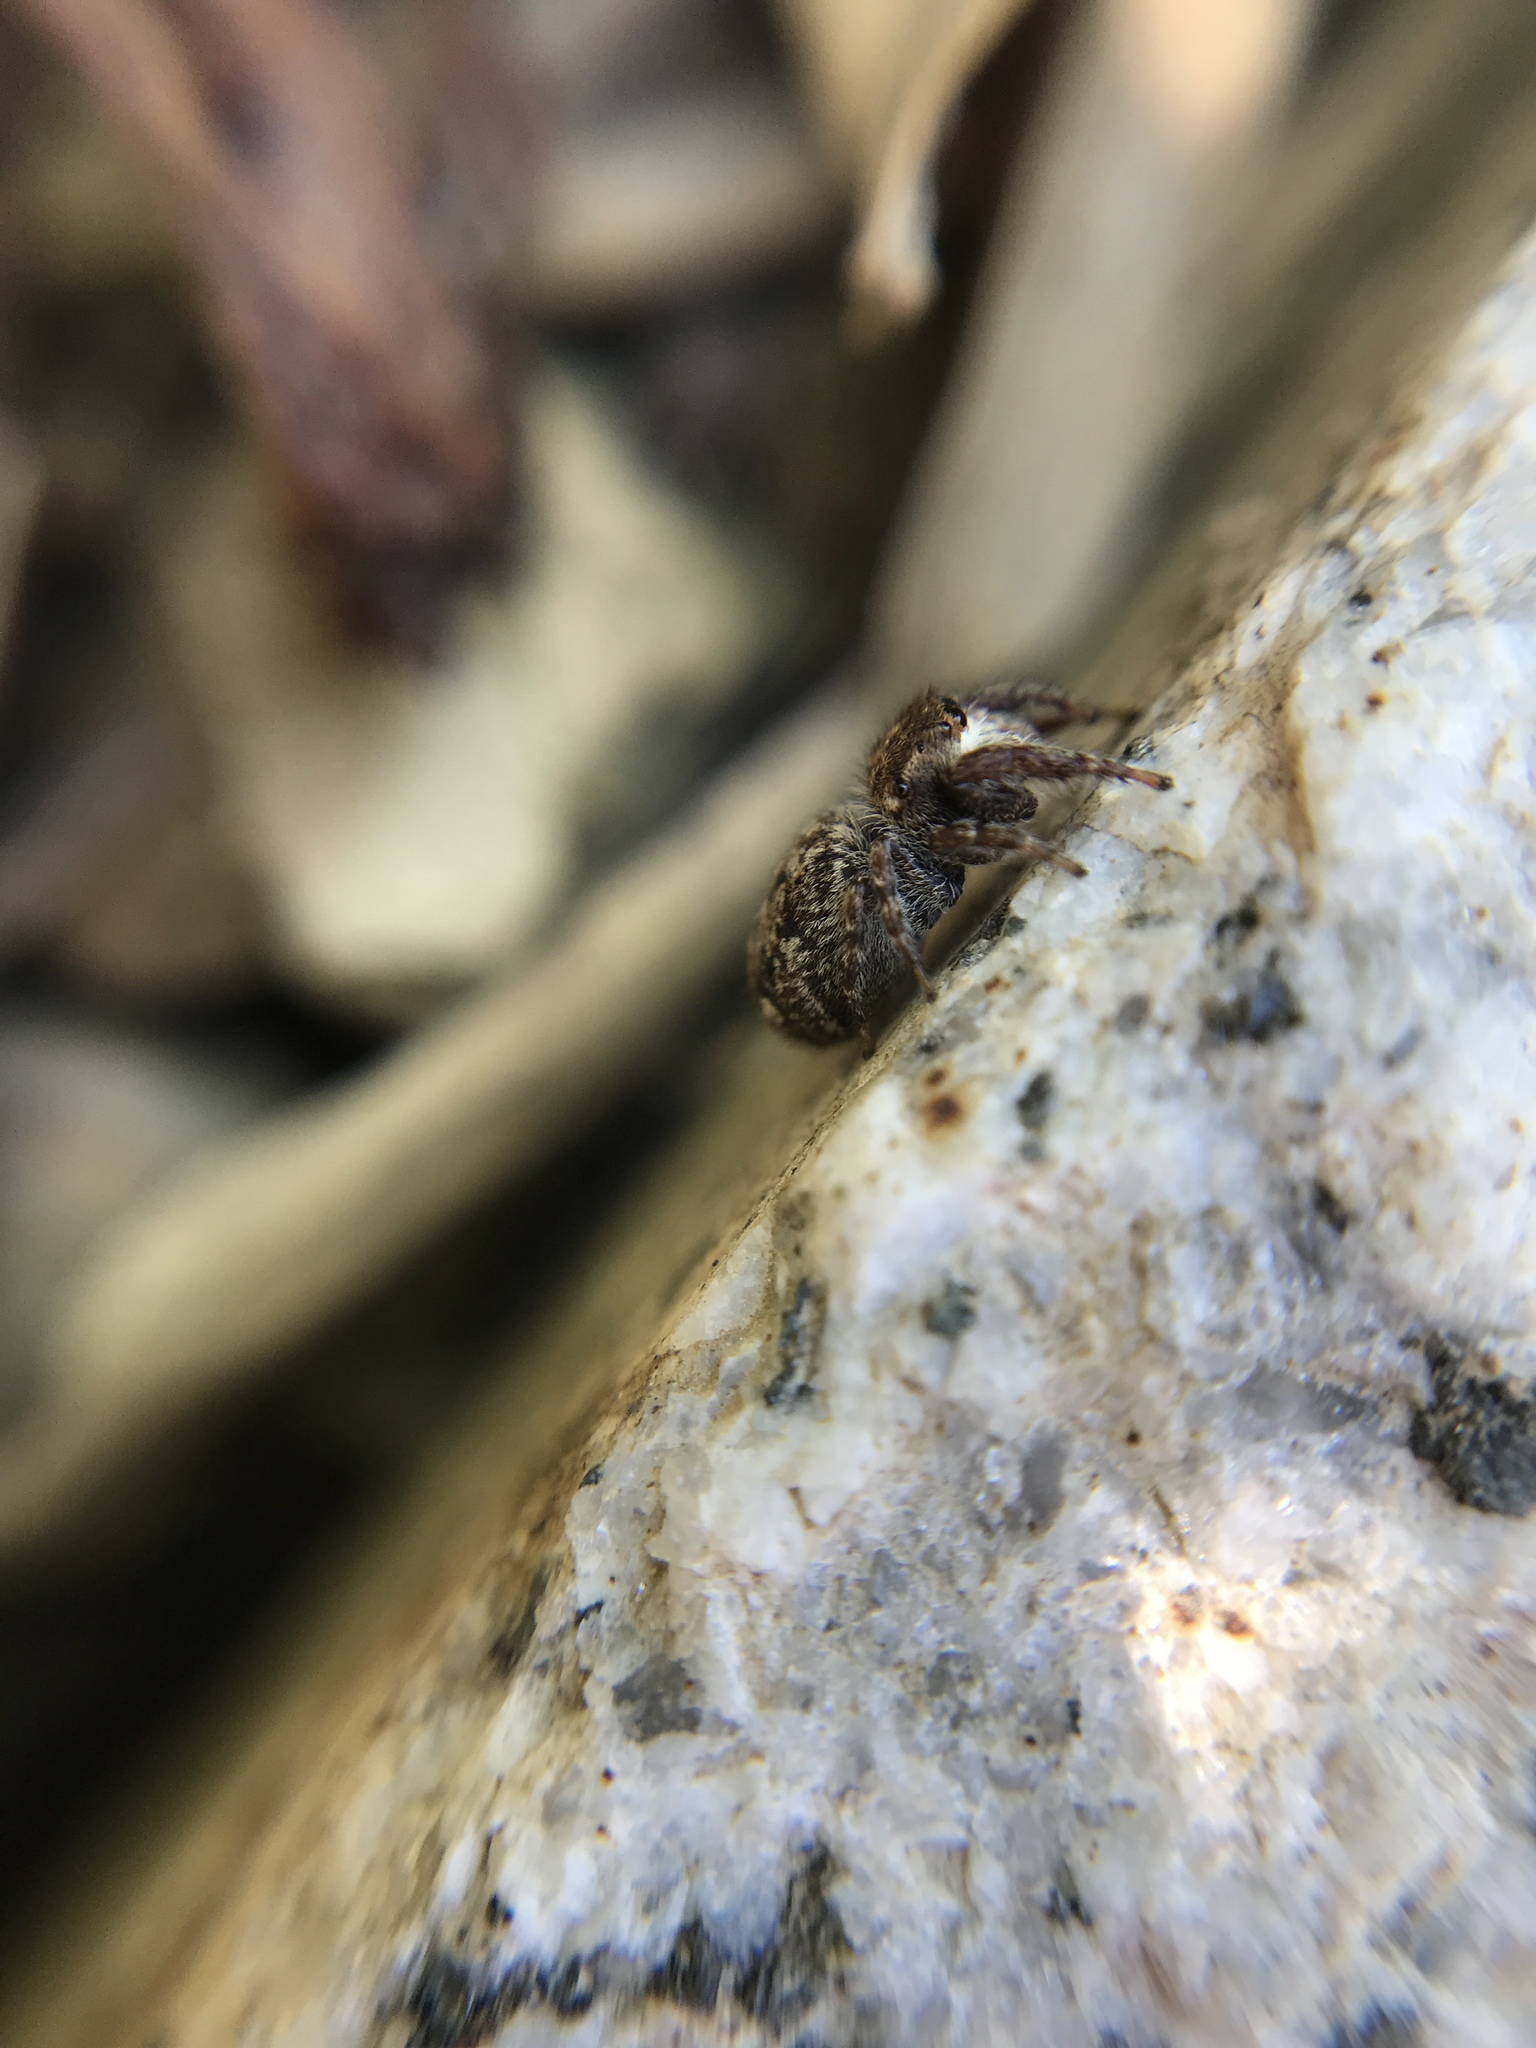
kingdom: Animalia
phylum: Arthropoda
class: Arachnida
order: Araneae
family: Salticidae
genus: Bianor
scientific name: Bianor albobimaculatus
